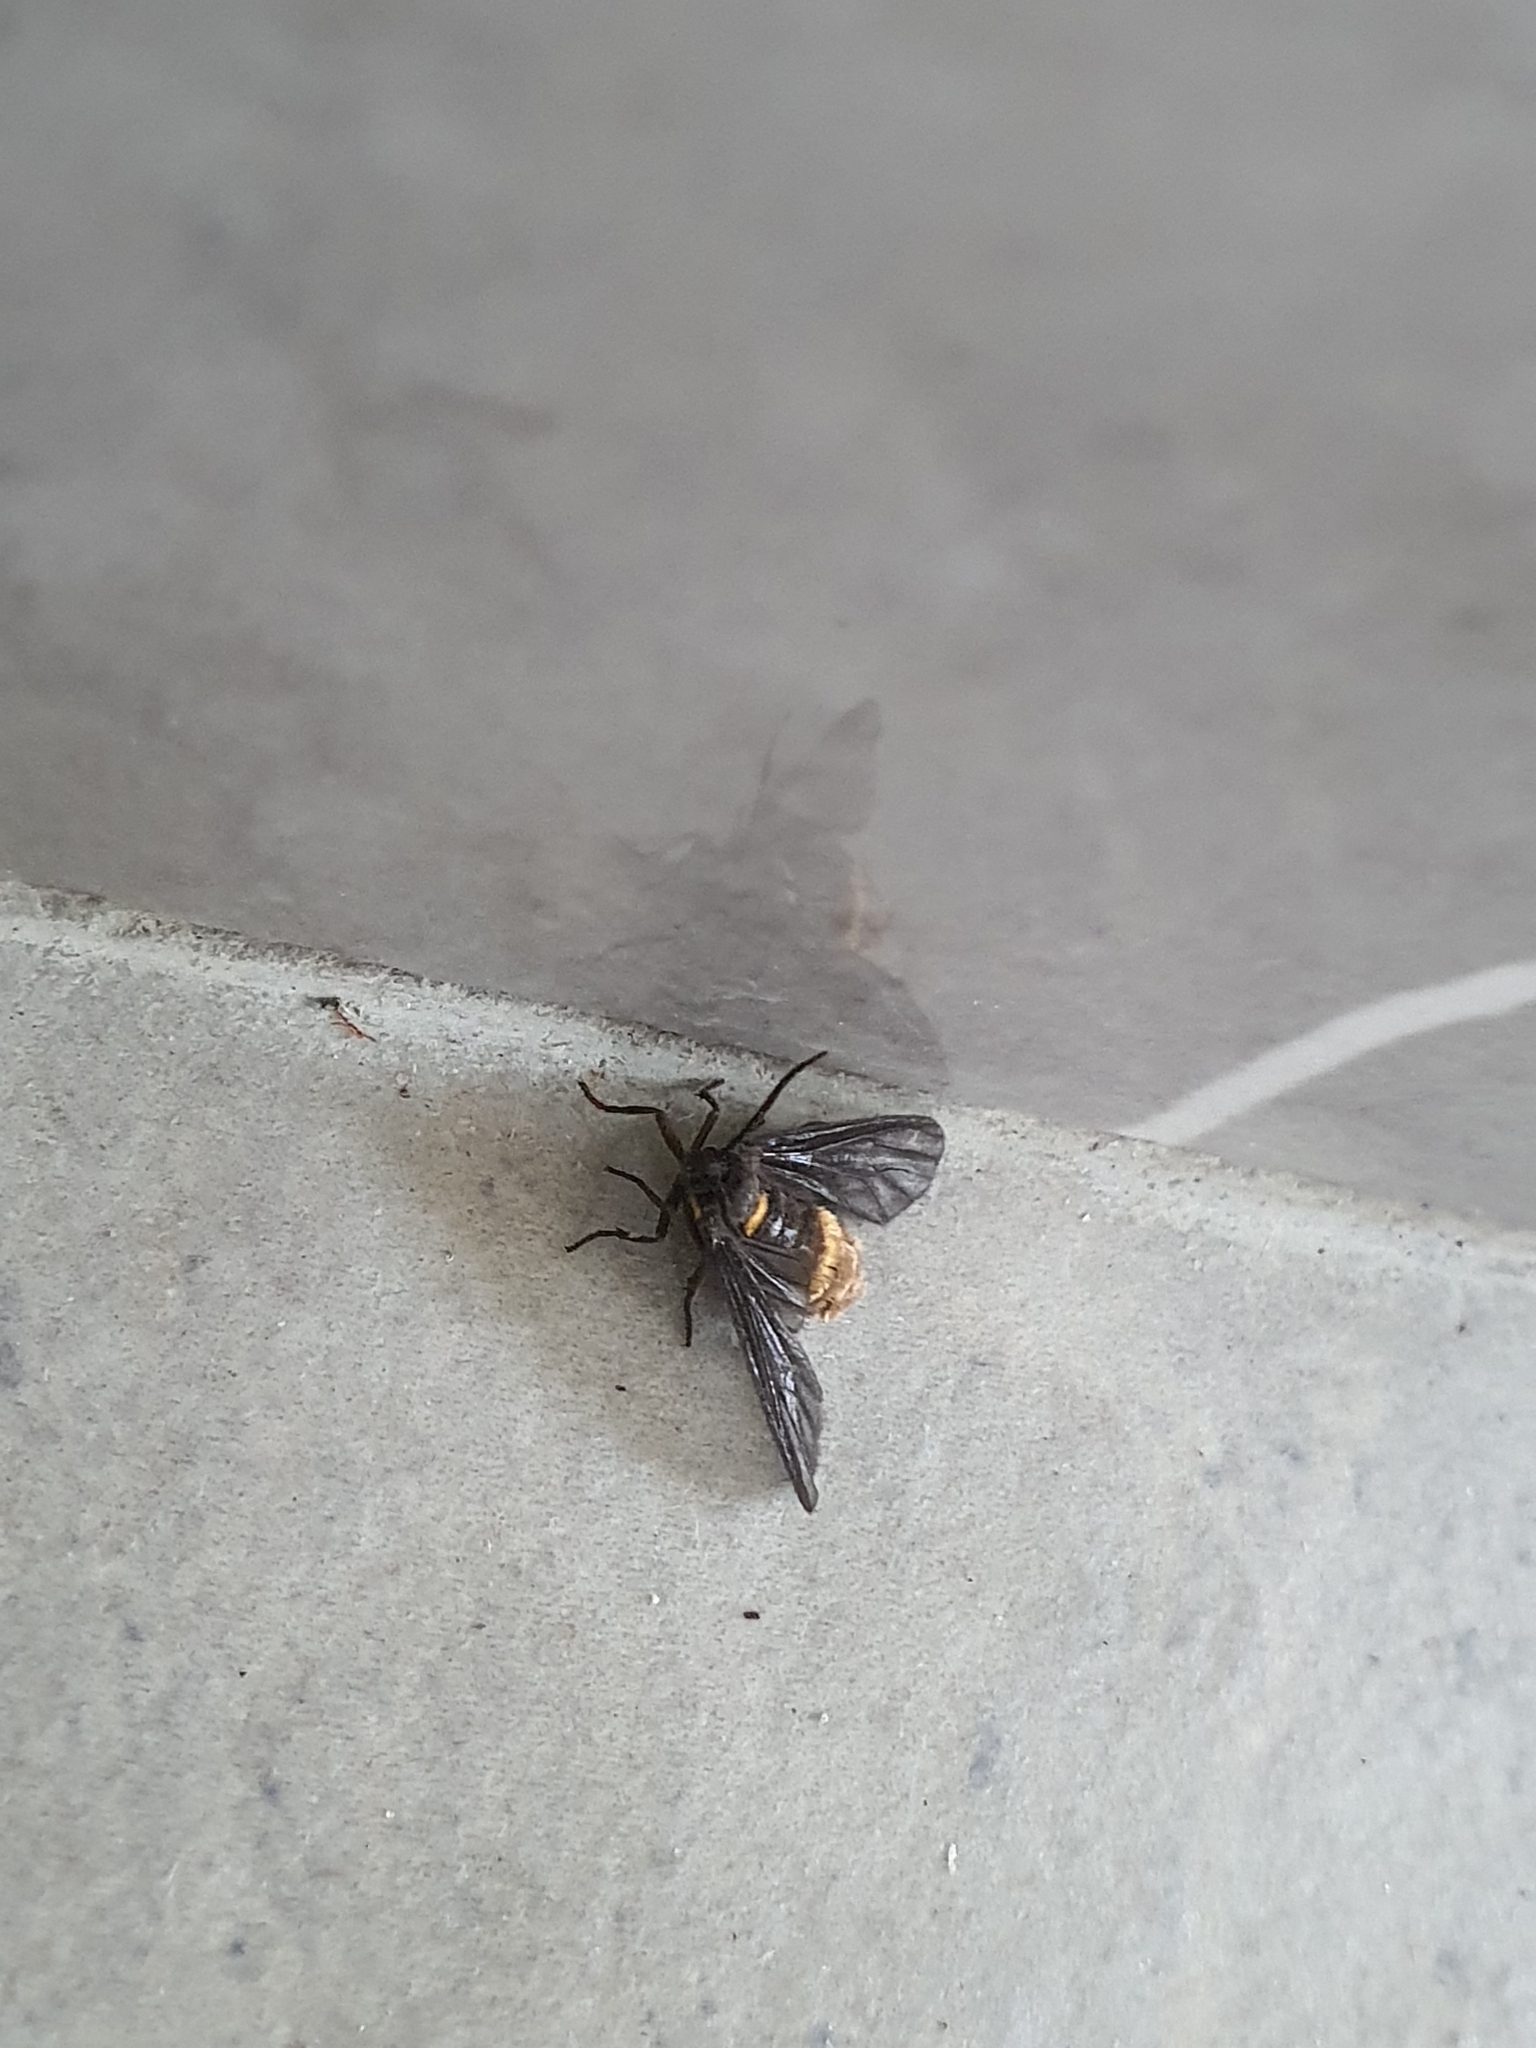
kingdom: Animalia
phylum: Arthropoda
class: Insecta
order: Lepidoptera
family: Erebidae
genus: Psichotoe
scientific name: Psichotoe duvauceli
